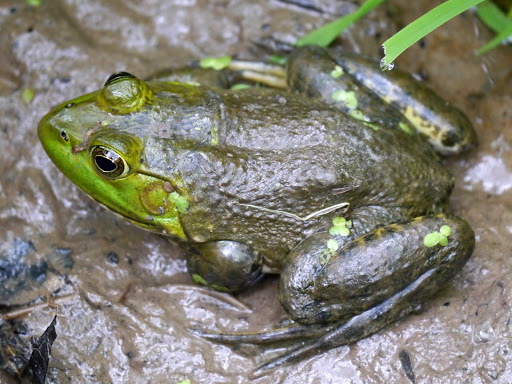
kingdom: Animalia
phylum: Chordata
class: Amphibia
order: Anura
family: Ranidae
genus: Lithobates
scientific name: Lithobates catesbeianus
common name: American bullfrog
